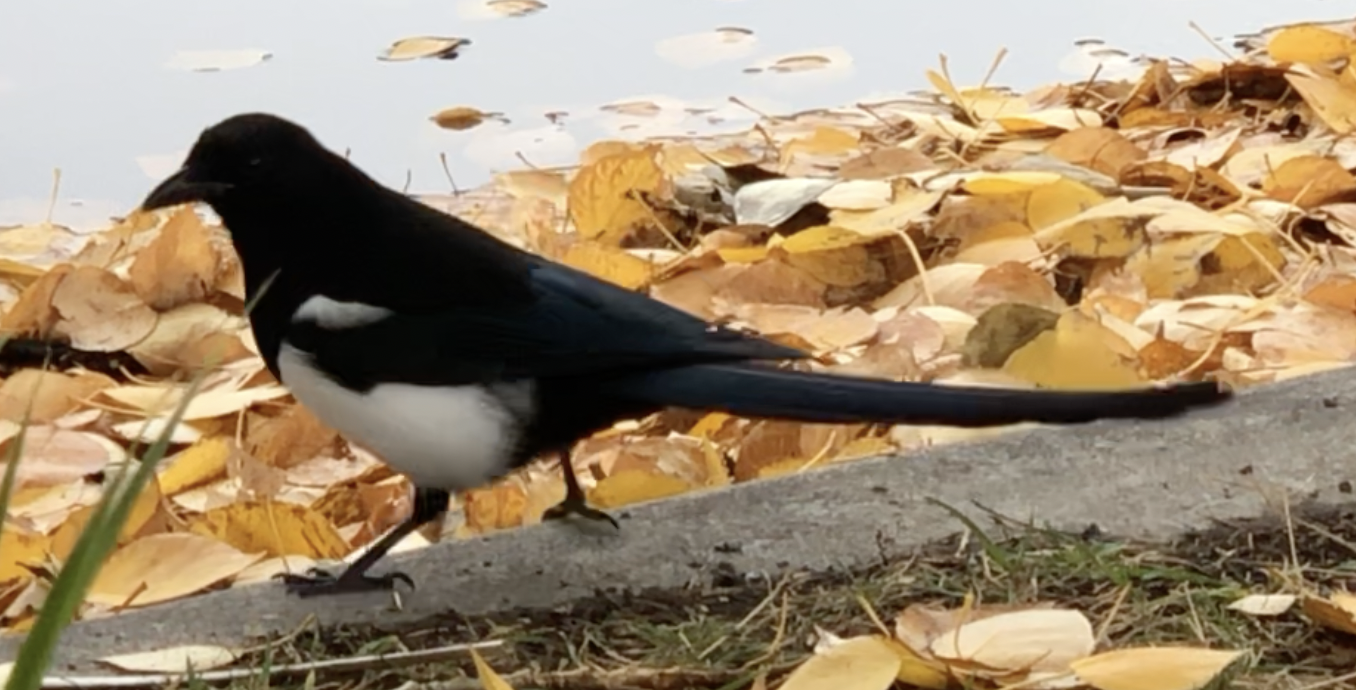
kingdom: Animalia
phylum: Chordata
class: Aves
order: Passeriformes
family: Corvidae
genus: Pica
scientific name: Pica hudsonia
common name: Black-billed magpie
